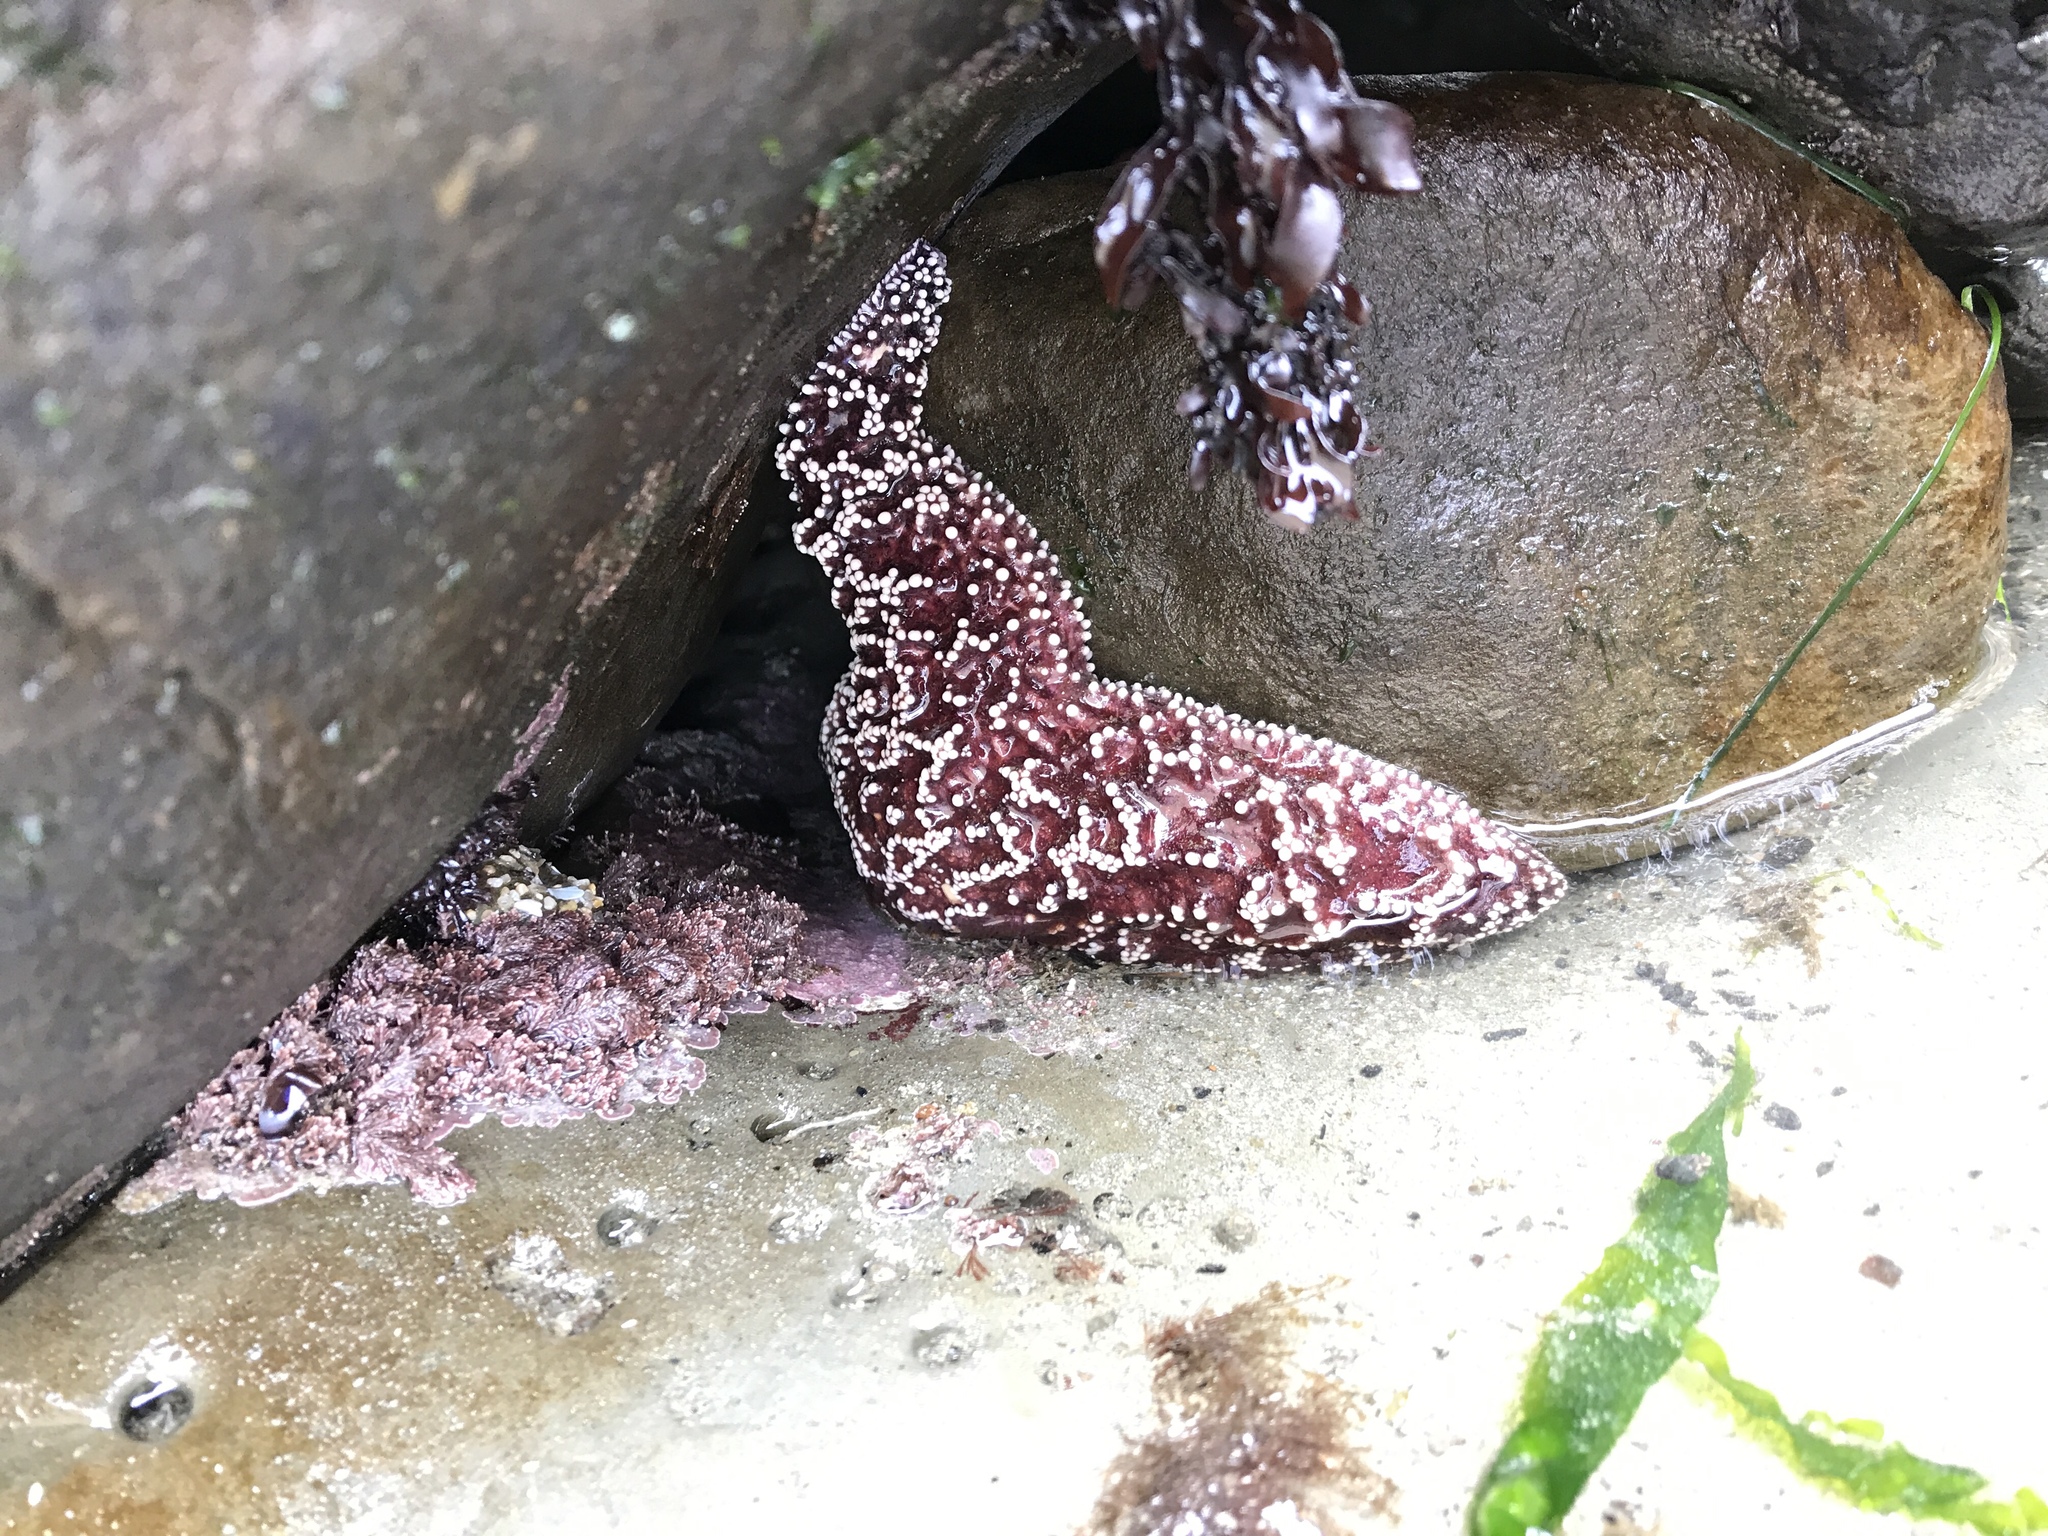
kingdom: Animalia
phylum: Echinodermata
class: Asteroidea
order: Forcipulatida
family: Asteriidae
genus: Pisaster
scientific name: Pisaster ochraceus
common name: Ochre stars
